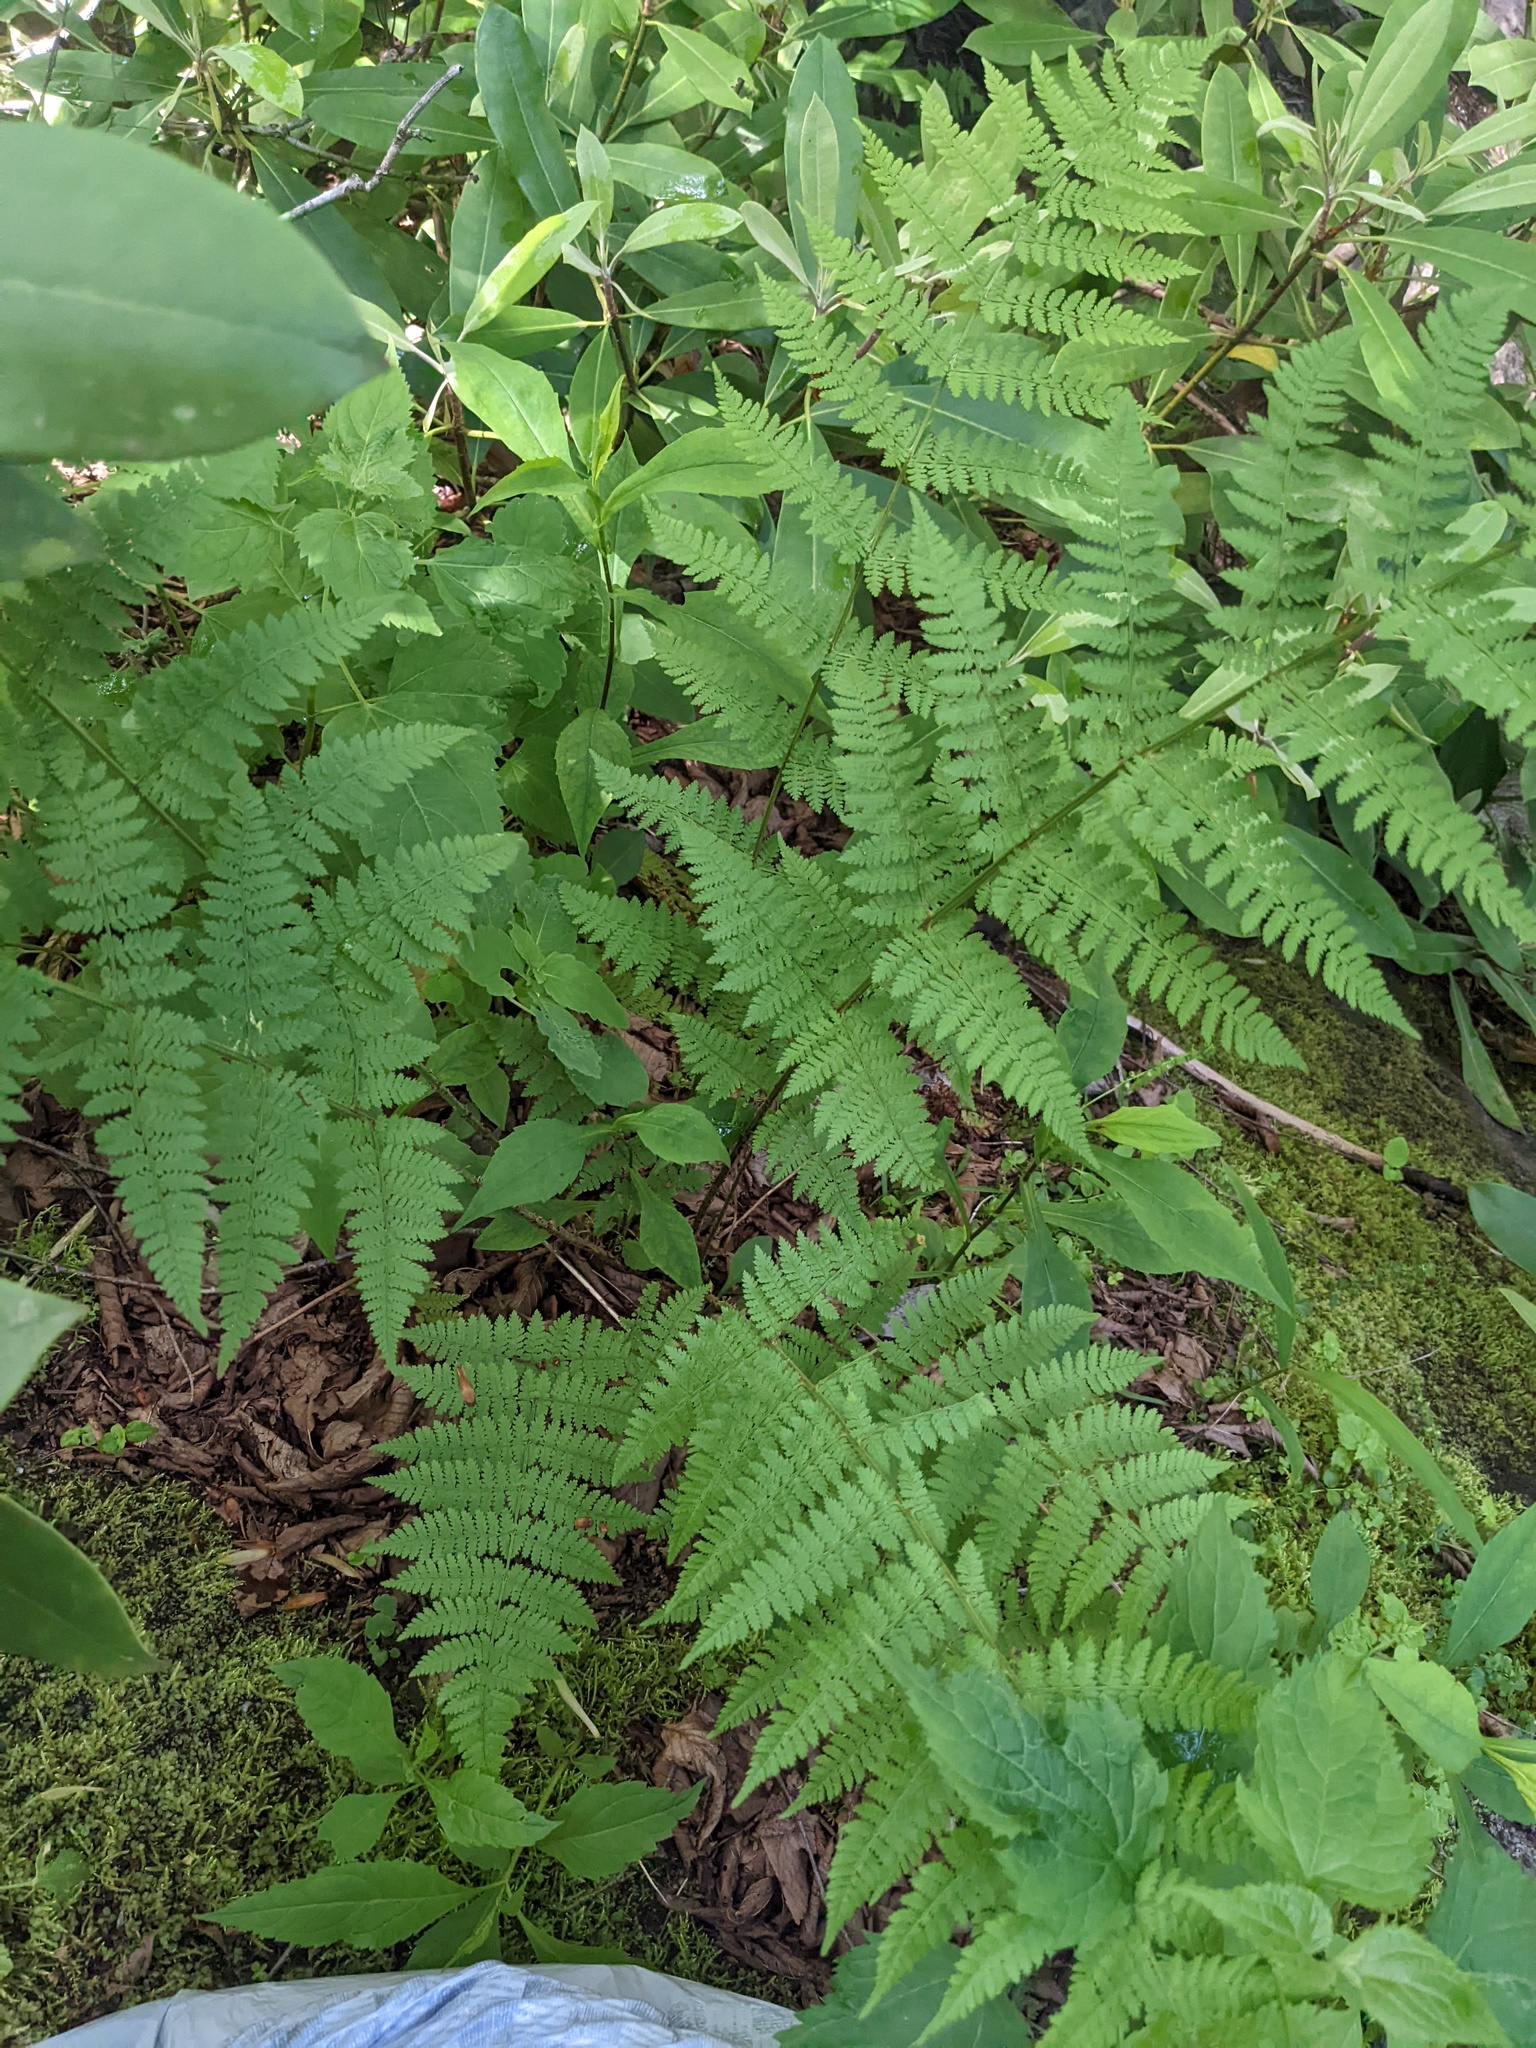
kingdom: Plantae
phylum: Tracheophyta
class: Polypodiopsida
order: Polypodiales
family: Dryopteridaceae
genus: Dryopteris
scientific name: Dryopteris intermedia
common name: Evergreen wood fern
